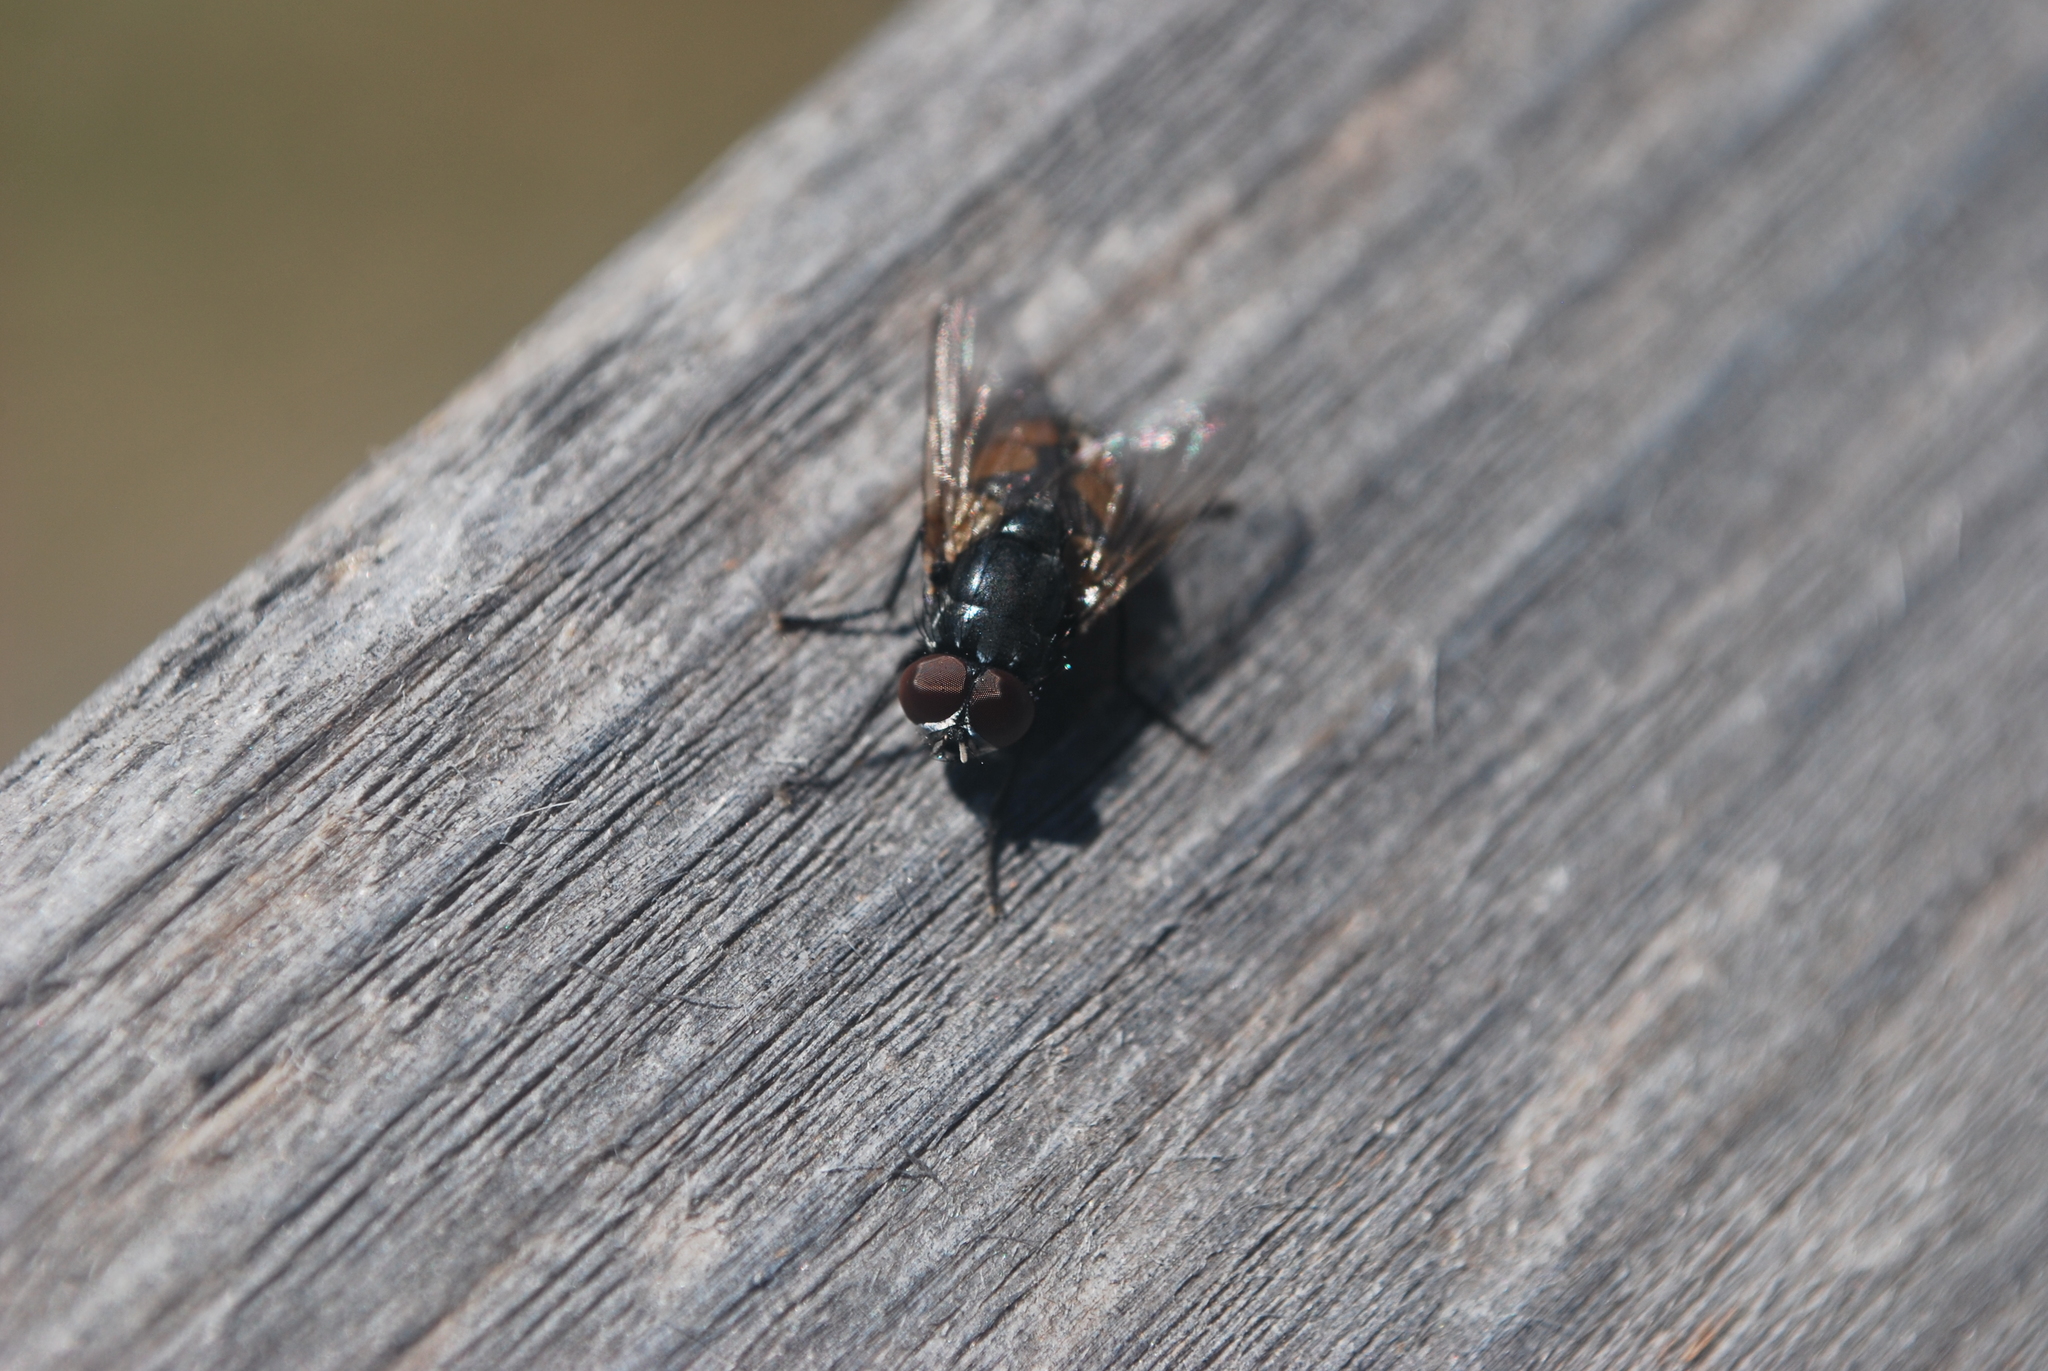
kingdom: Animalia
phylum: Arthropoda
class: Insecta
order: Diptera
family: Muscidae
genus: Musca
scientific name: Musca autumnalis
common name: Face fly
